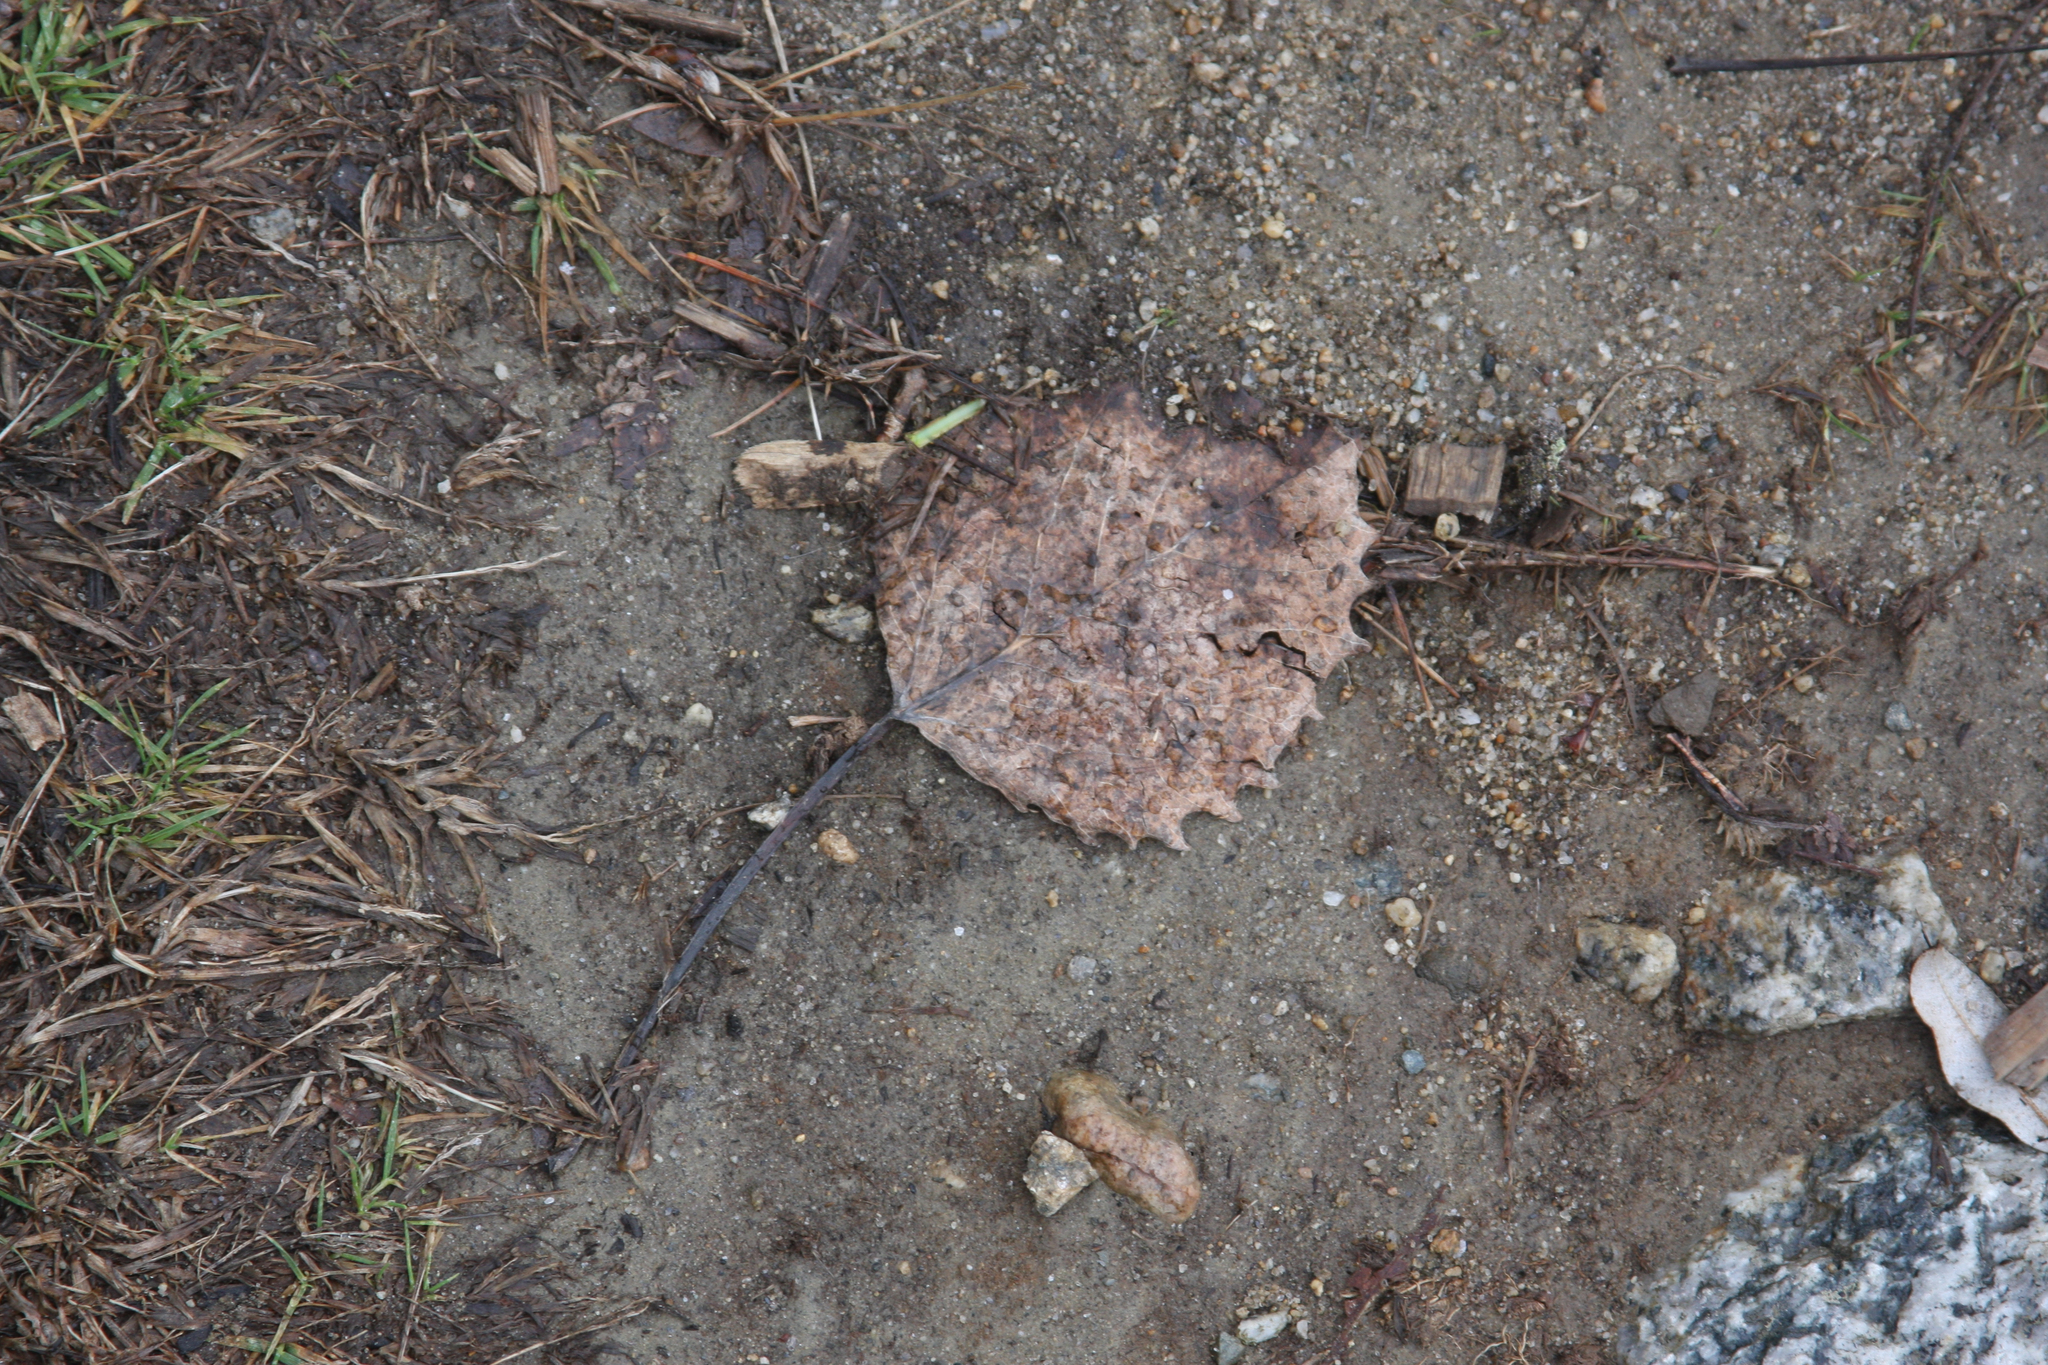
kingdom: Plantae
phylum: Tracheophyta
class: Magnoliopsida
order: Malpighiales
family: Salicaceae
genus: Populus
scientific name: Populus grandidentata
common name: Bigtooth aspen
